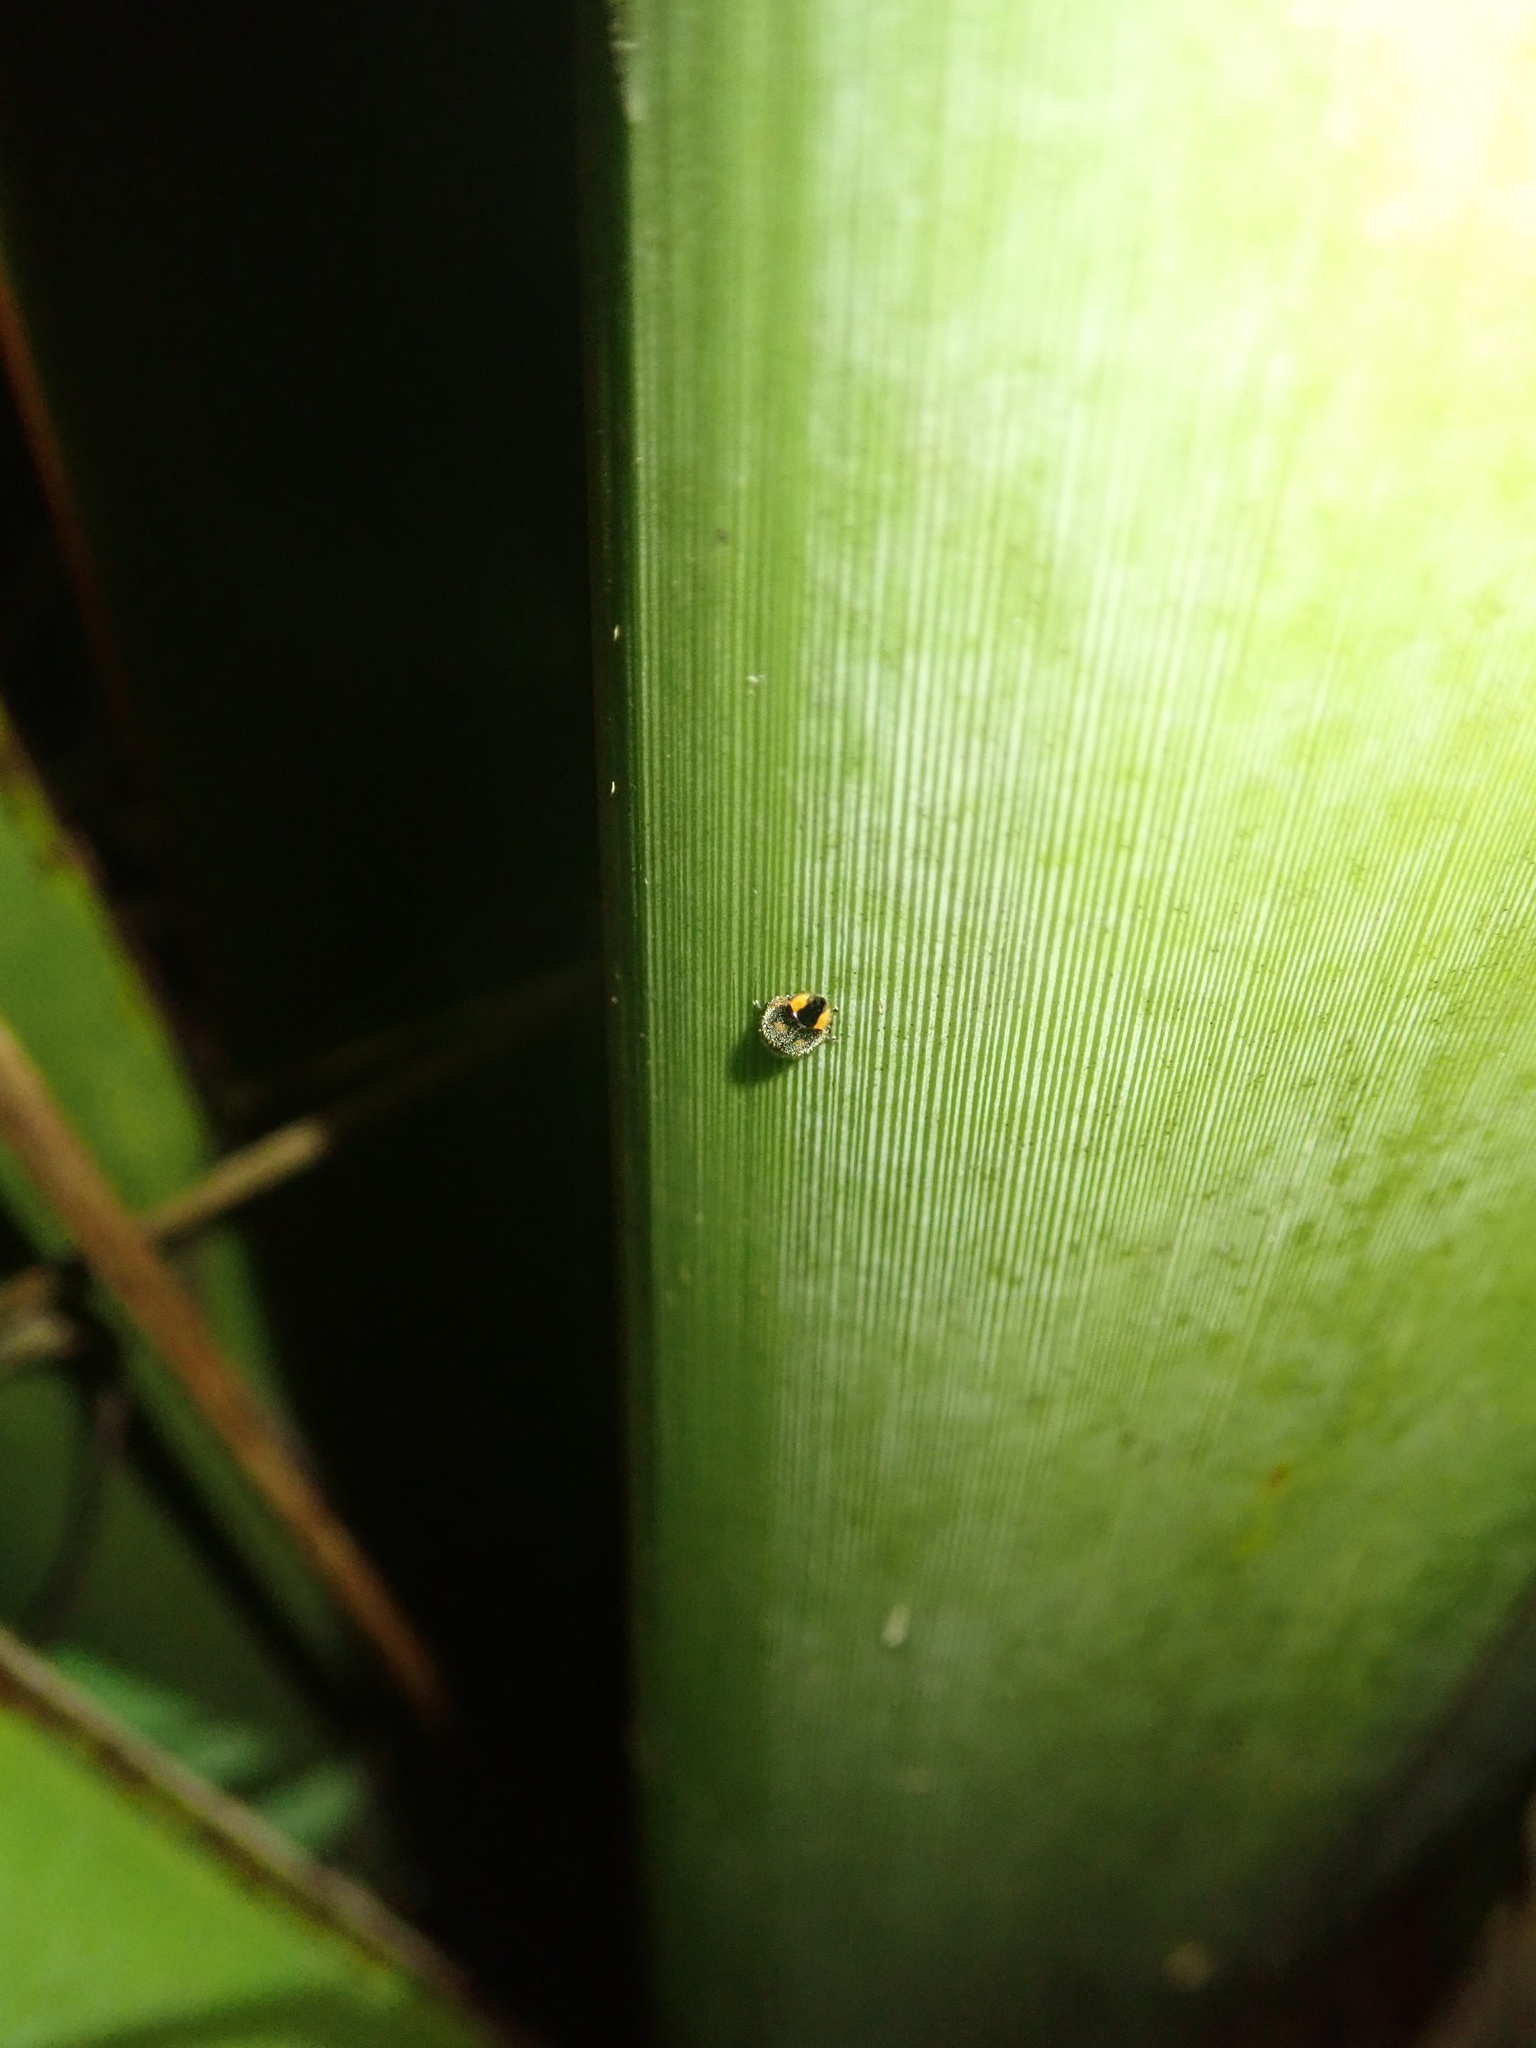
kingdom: Animalia
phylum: Arthropoda
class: Insecta
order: Coleoptera
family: Coccinellidae
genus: Hoangus
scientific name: Hoangus
